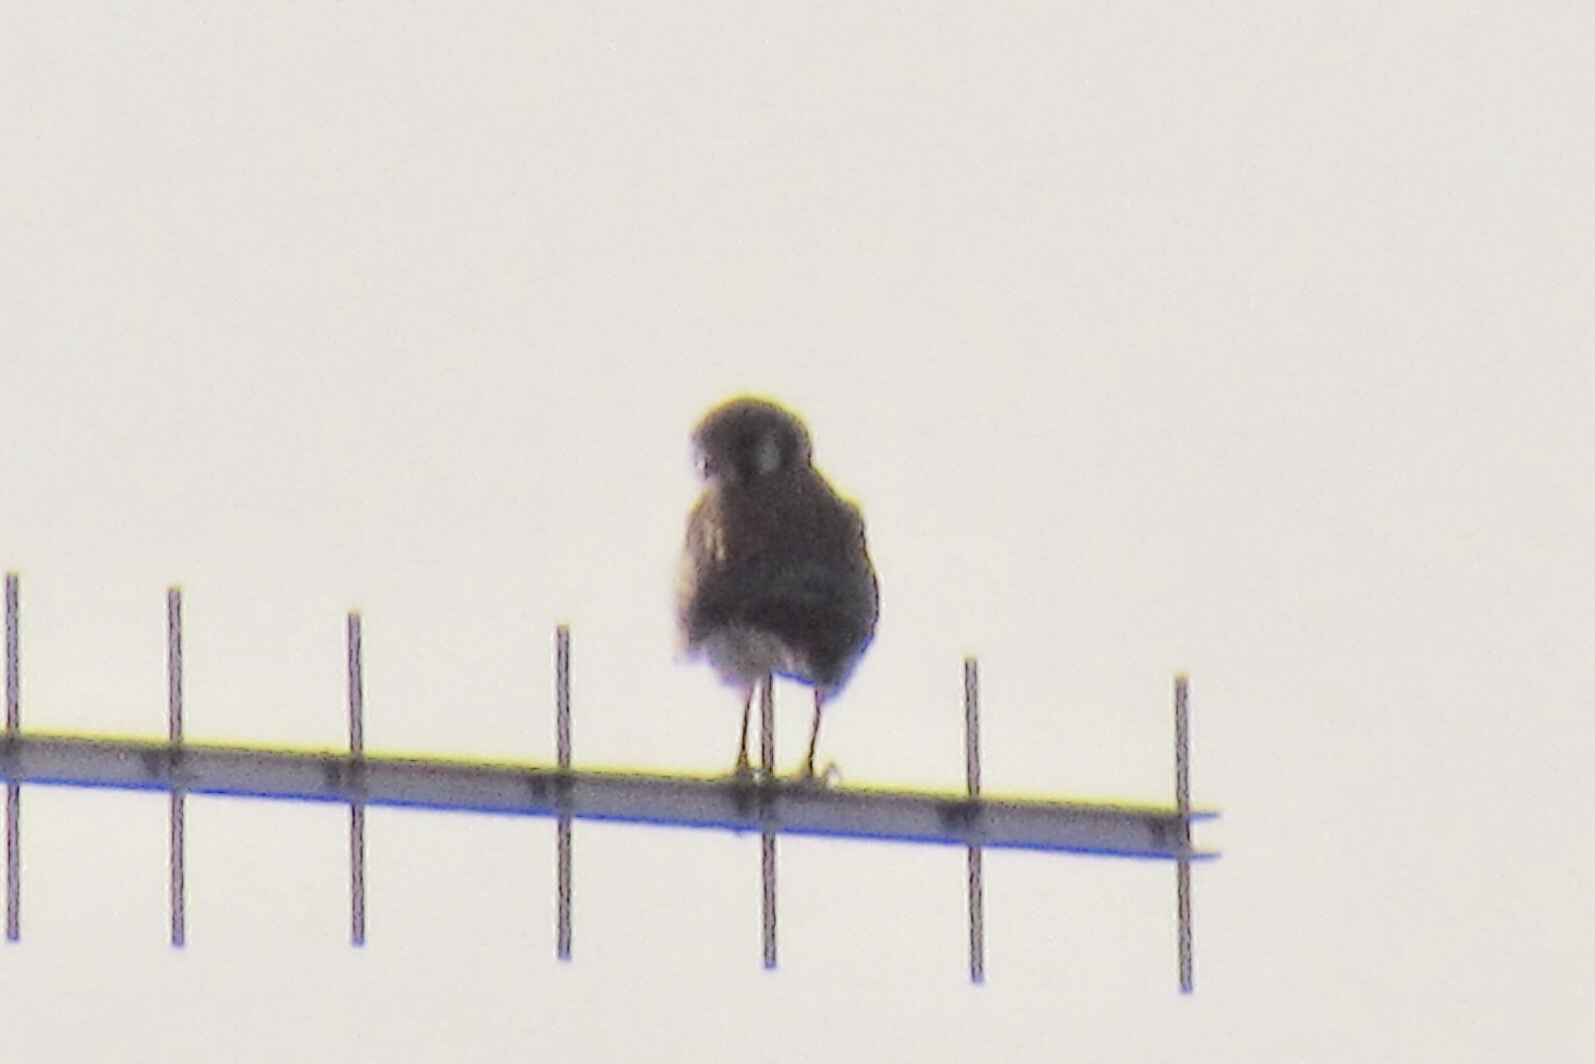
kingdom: Animalia
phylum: Chordata
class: Aves
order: Falconiformes
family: Falconidae
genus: Falco
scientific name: Falco sparverius
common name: American kestrel
